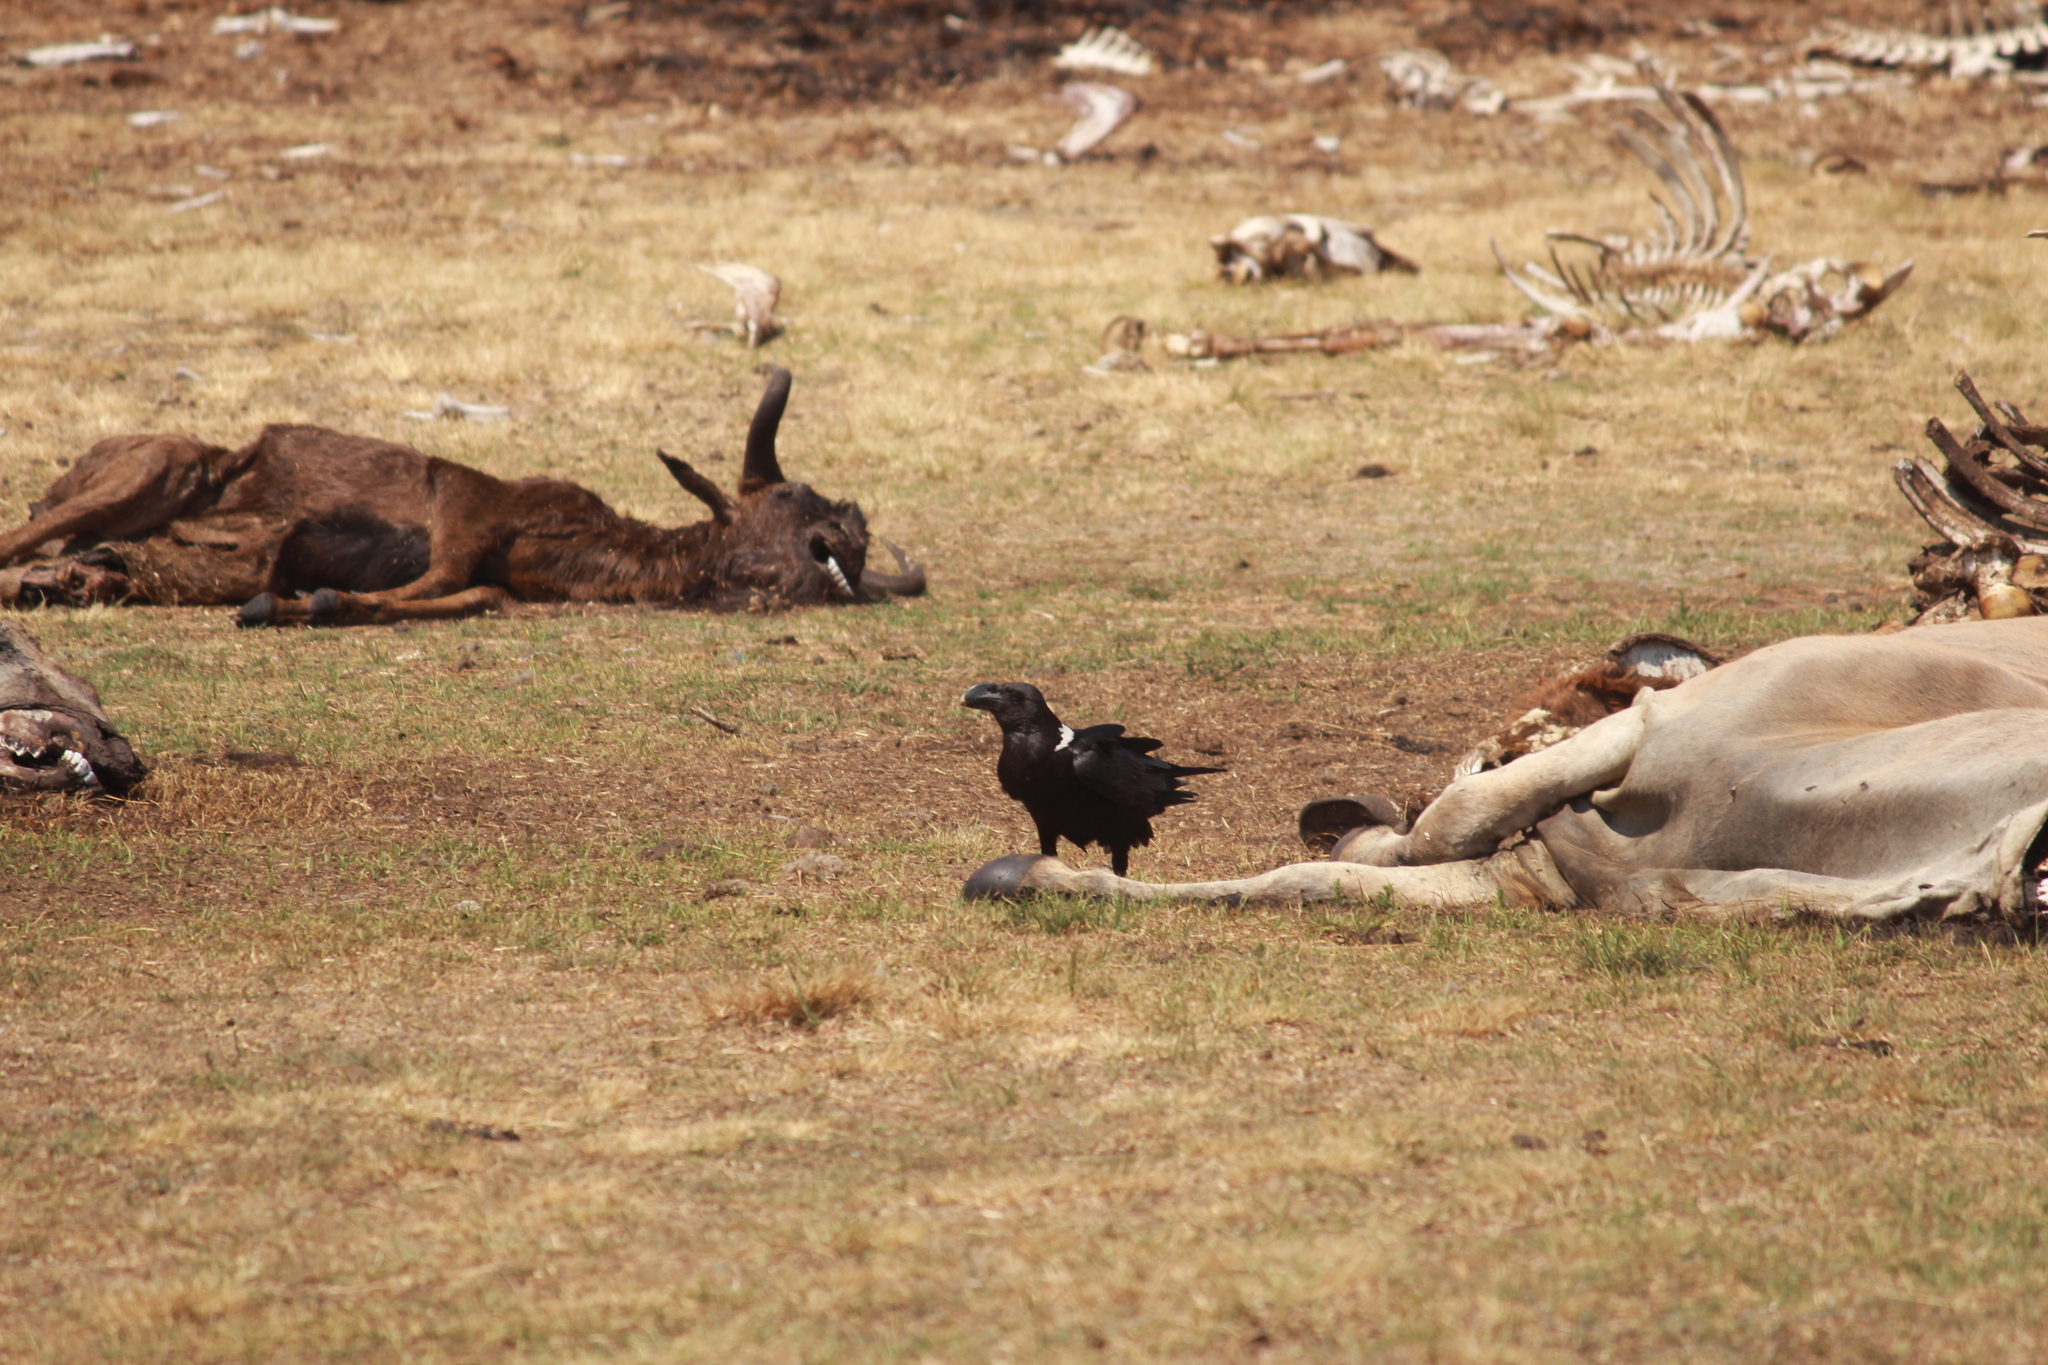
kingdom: Animalia
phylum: Chordata
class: Aves
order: Passeriformes
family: Corvidae
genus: Corvus
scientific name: Corvus albicollis
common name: White-necked raven
